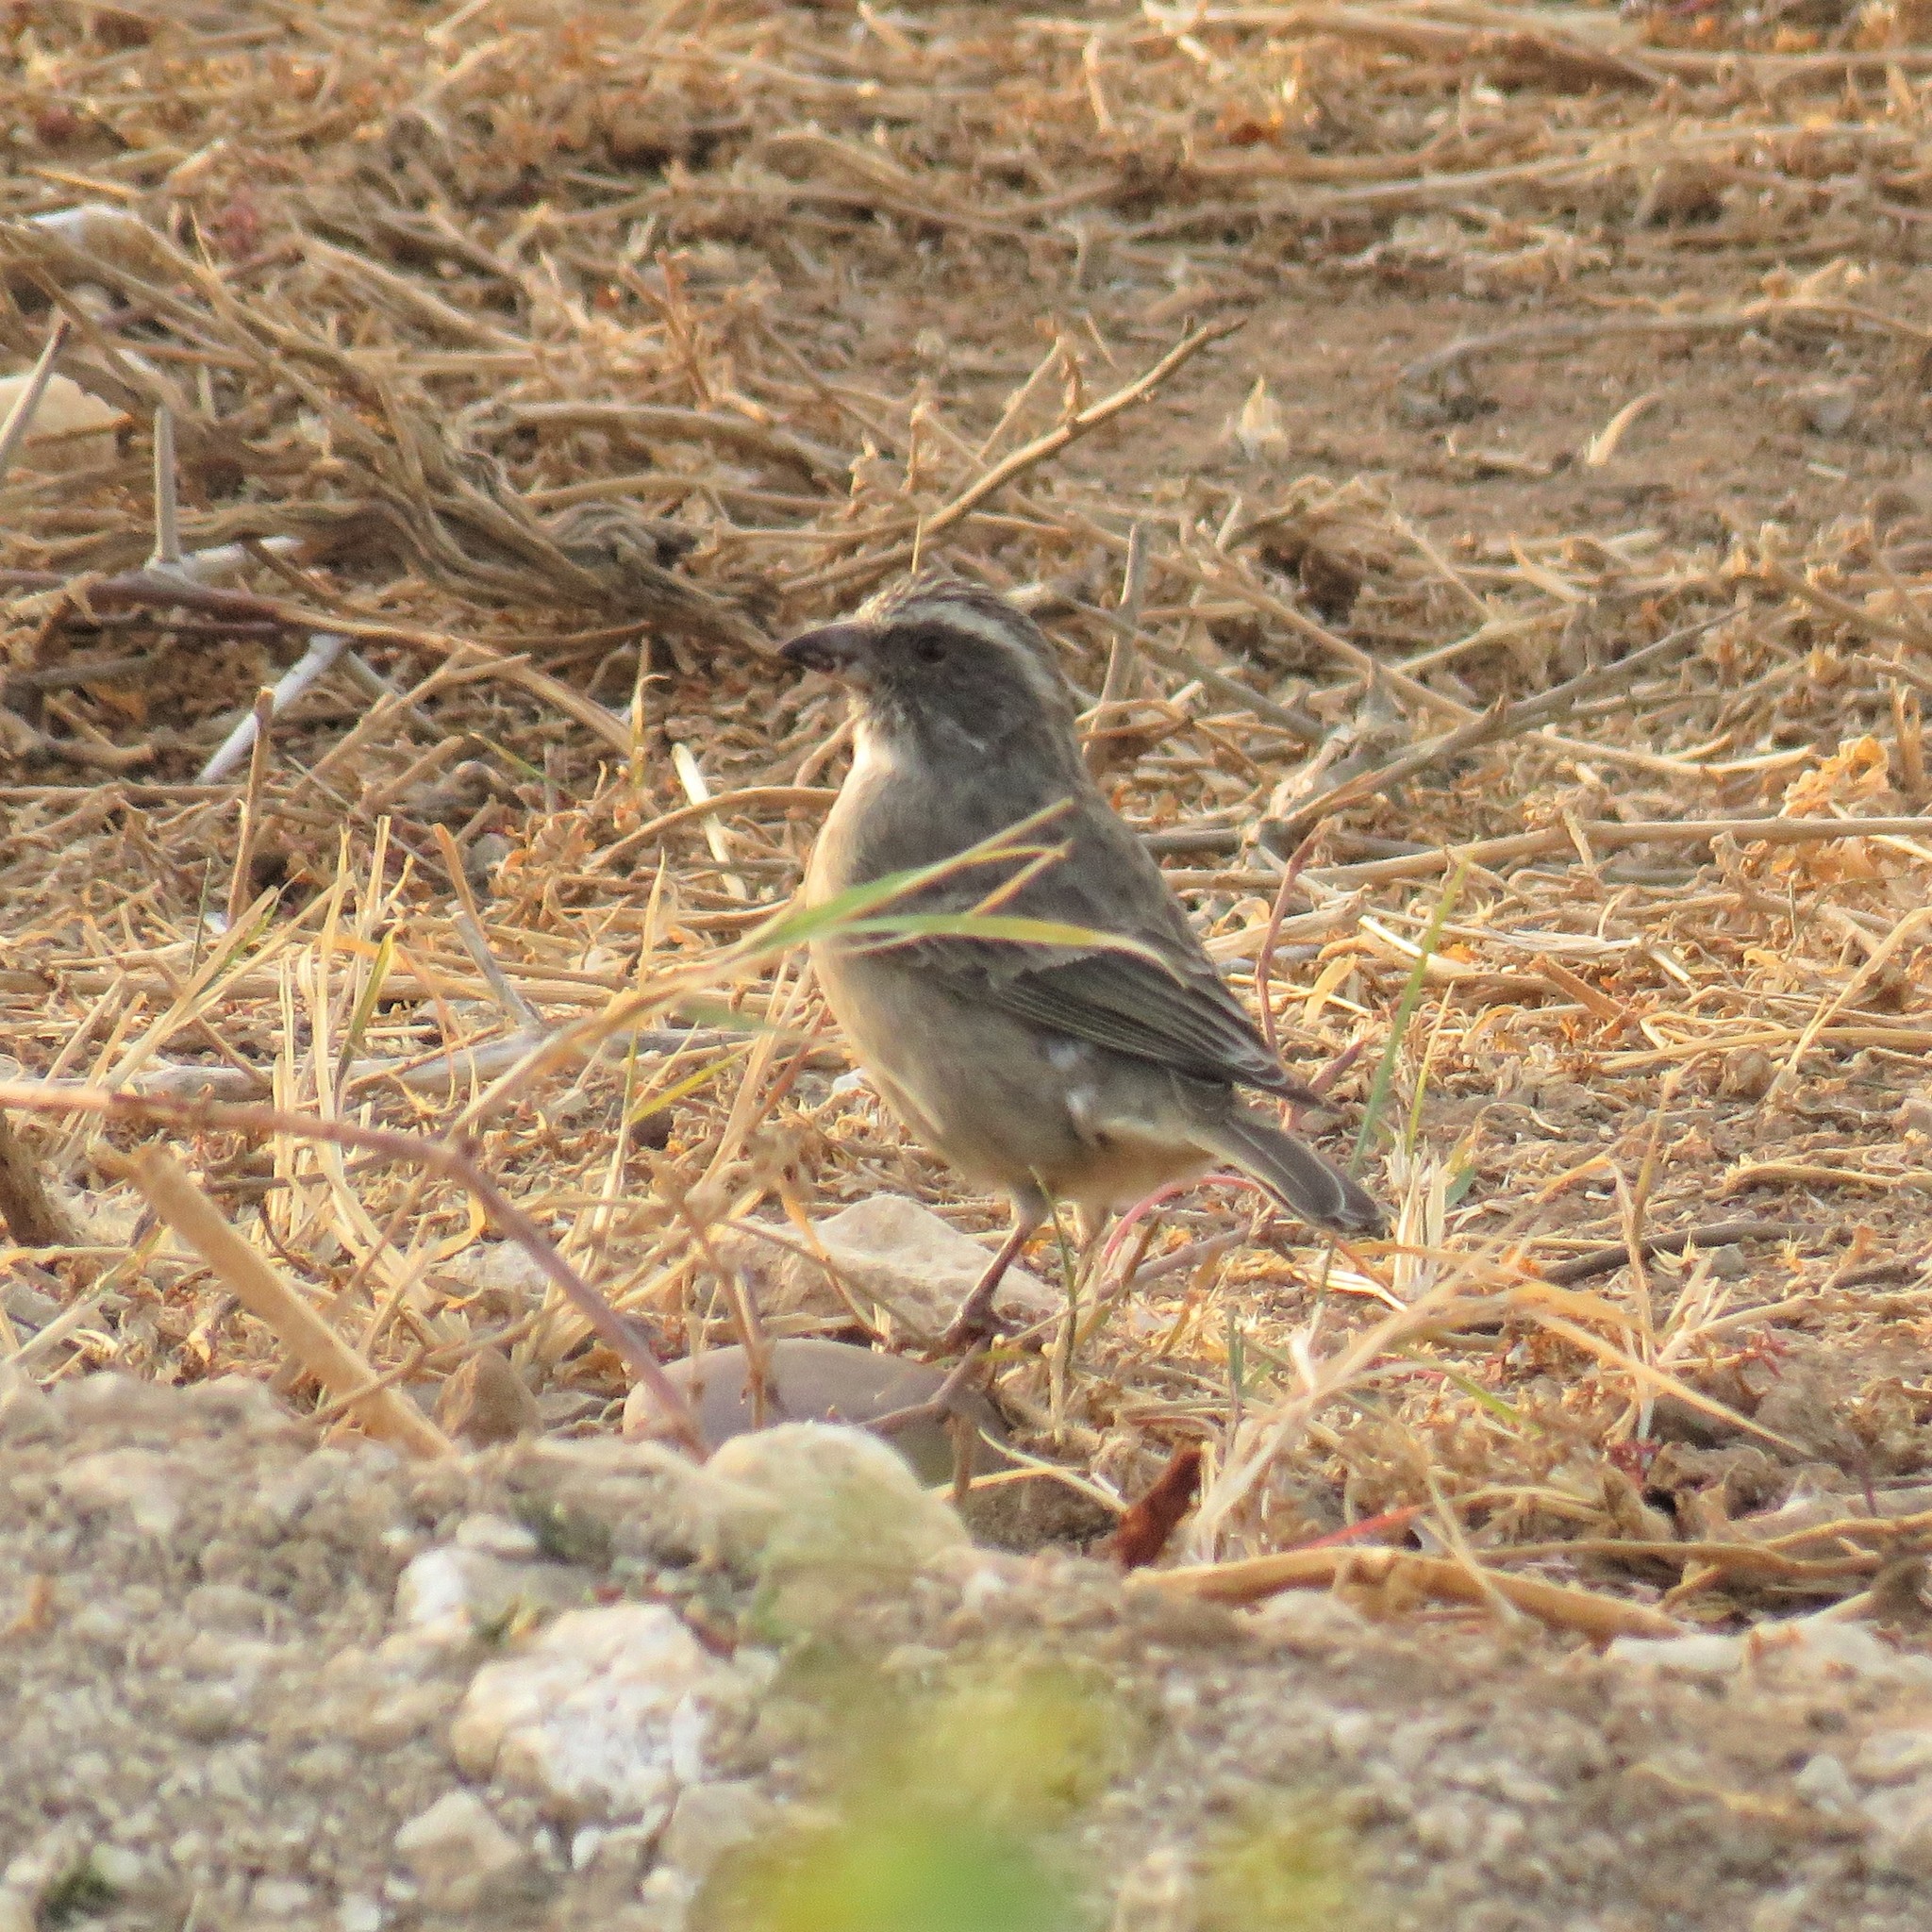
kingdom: Animalia
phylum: Chordata
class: Aves
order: Passeriformes
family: Fringillidae
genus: Crithagra
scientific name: Crithagra gularis
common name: Streaky-headed seedeater
